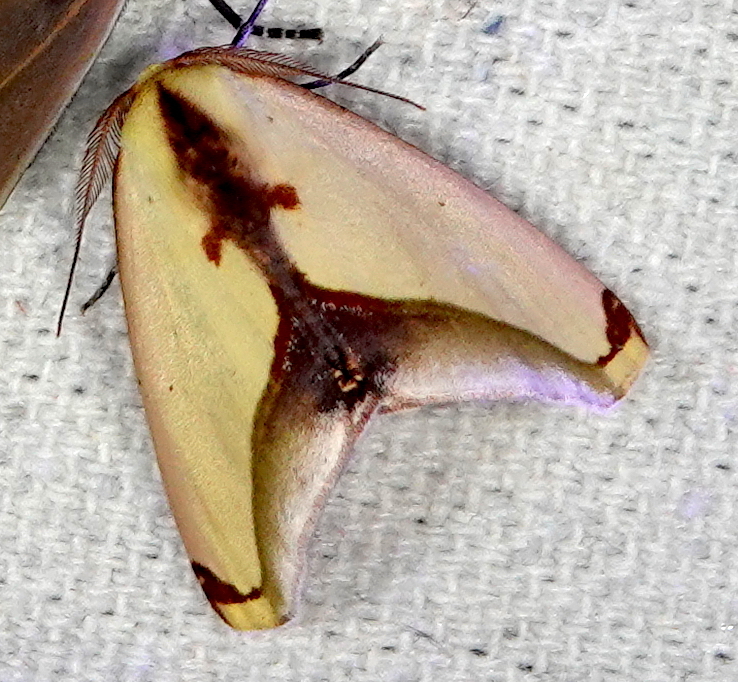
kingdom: Animalia
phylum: Arthropoda
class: Insecta
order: Lepidoptera
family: Geometridae
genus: Sicya
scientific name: Sicya dognini
